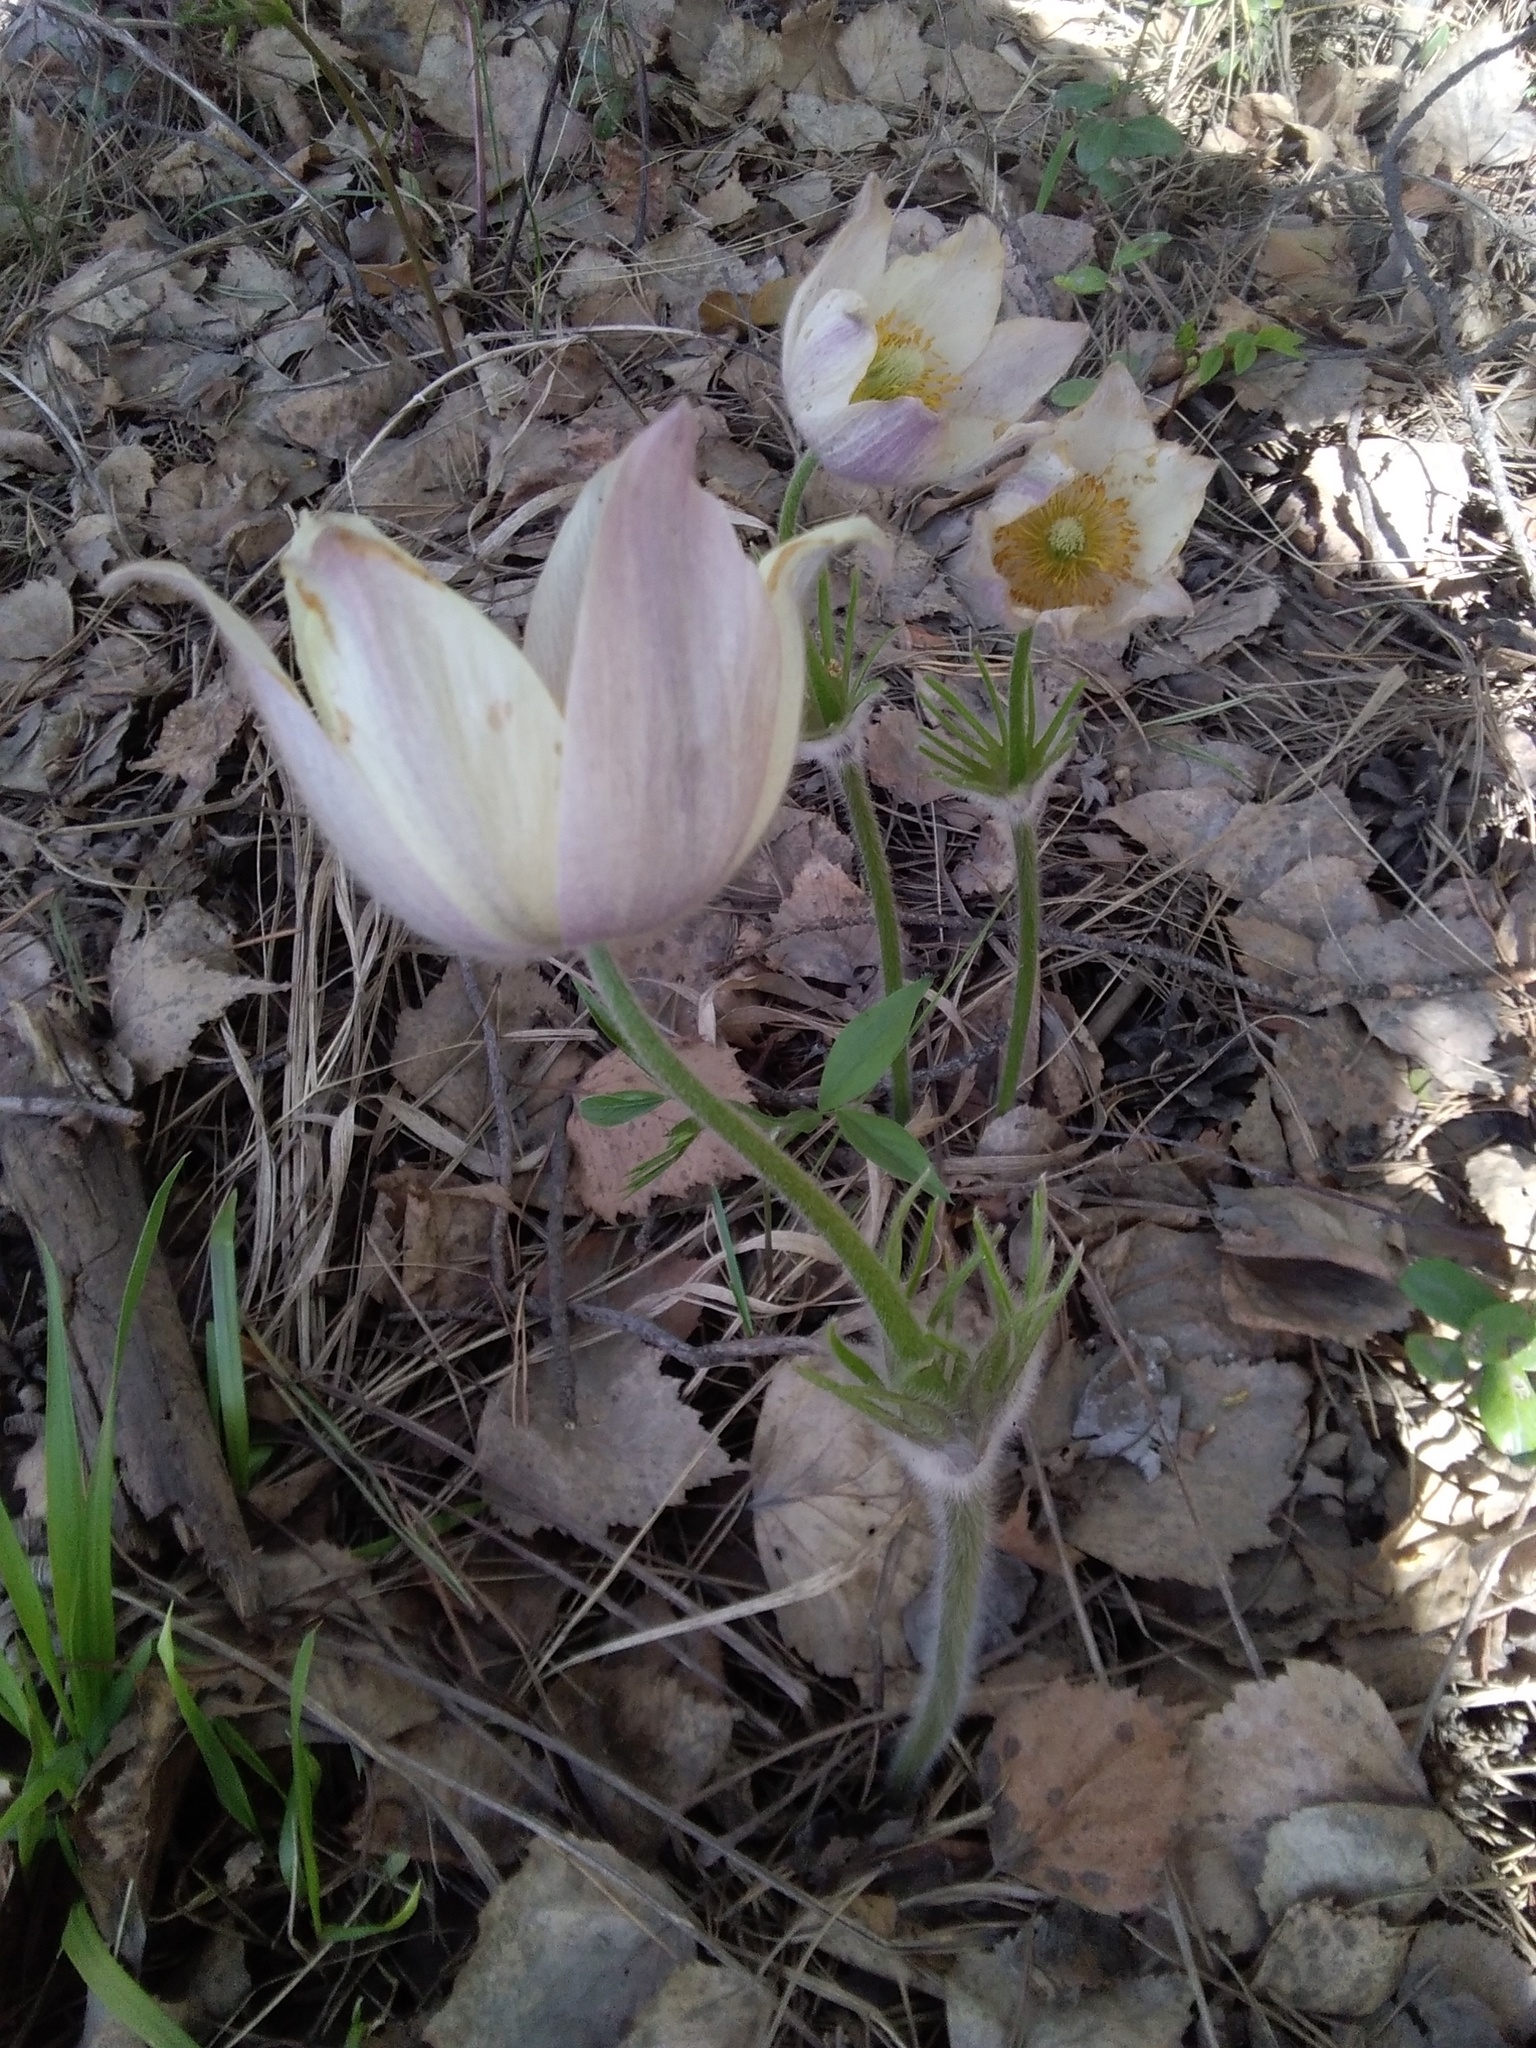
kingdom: Plantae
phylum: Tracheophyta
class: Magnoliopsida
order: Ranunculales
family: Ranunculaceae
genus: Pulsatilla
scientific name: Pulsatilla patens
